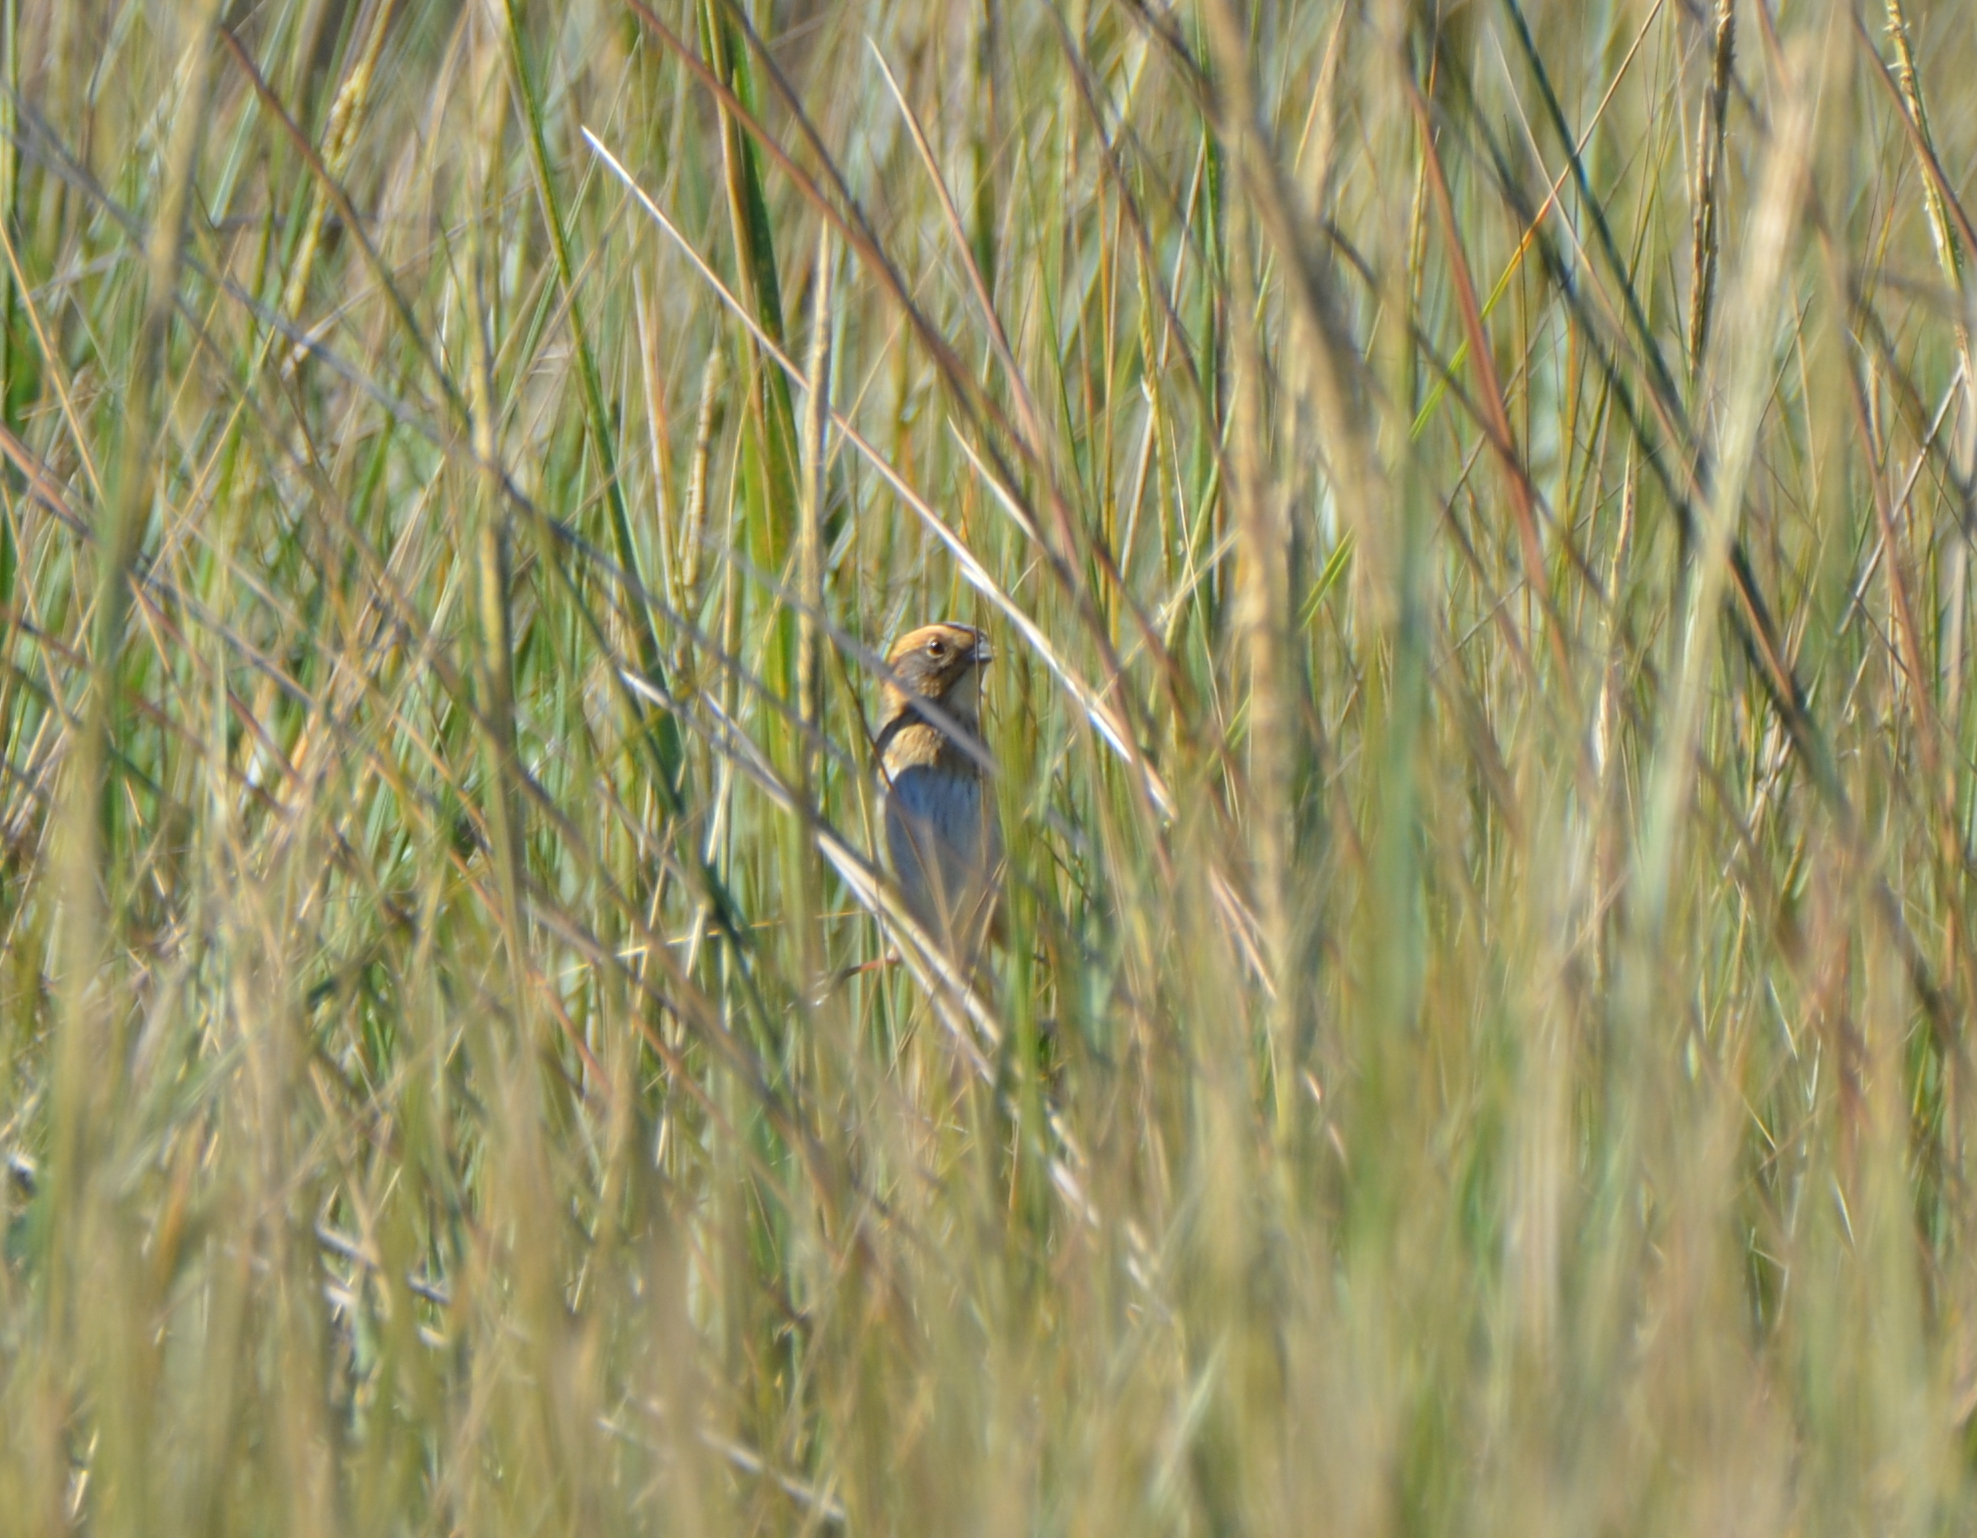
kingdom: Animalia
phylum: Chordata
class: Aves
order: Passeriformes
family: Passerellidae
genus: Ammospiza
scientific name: Ammospiza nelsoni
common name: Nelson's sparrow
